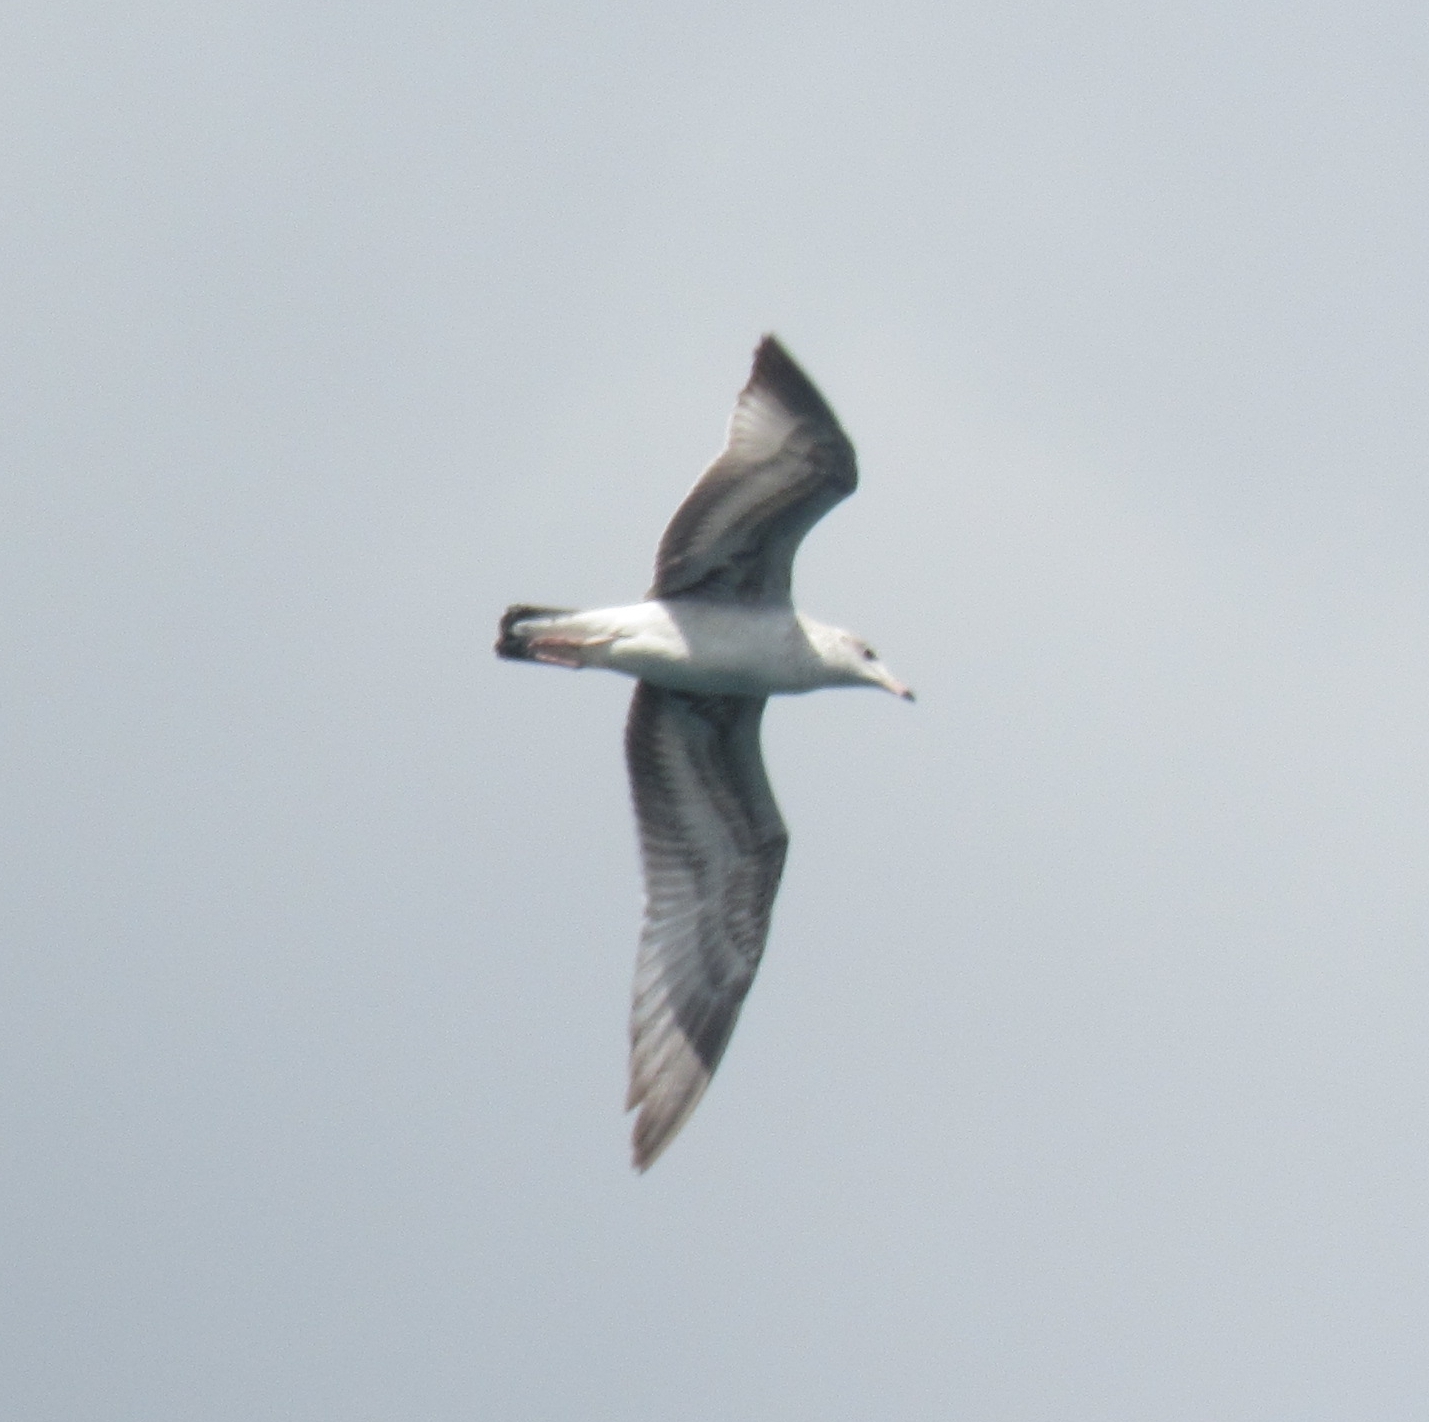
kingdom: Animalia
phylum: Chordata
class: Aves
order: Charadriiformes
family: Laridae
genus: Larus
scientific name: Larus delawarensis
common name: Ring-billed gull
